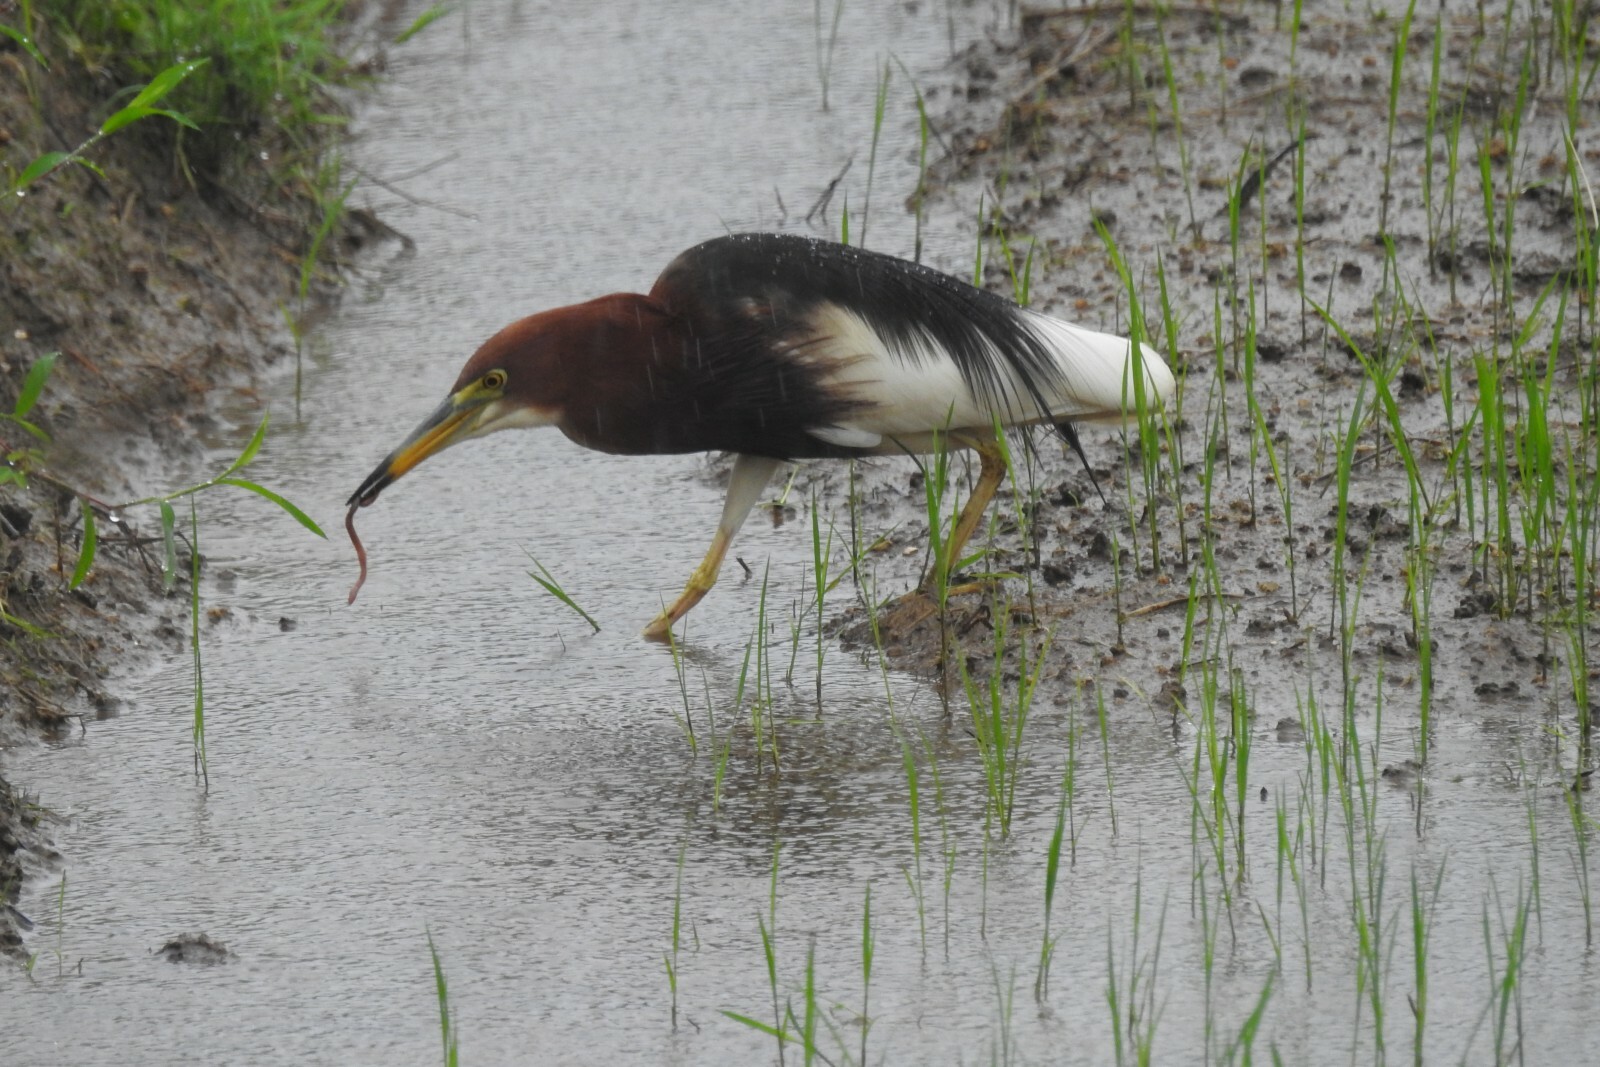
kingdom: Animalia
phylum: Chordata
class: Aves
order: Pelecaniformes
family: Ardeidae
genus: Ardeola
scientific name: Ardeola bacchus
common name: Chinese pond heron
